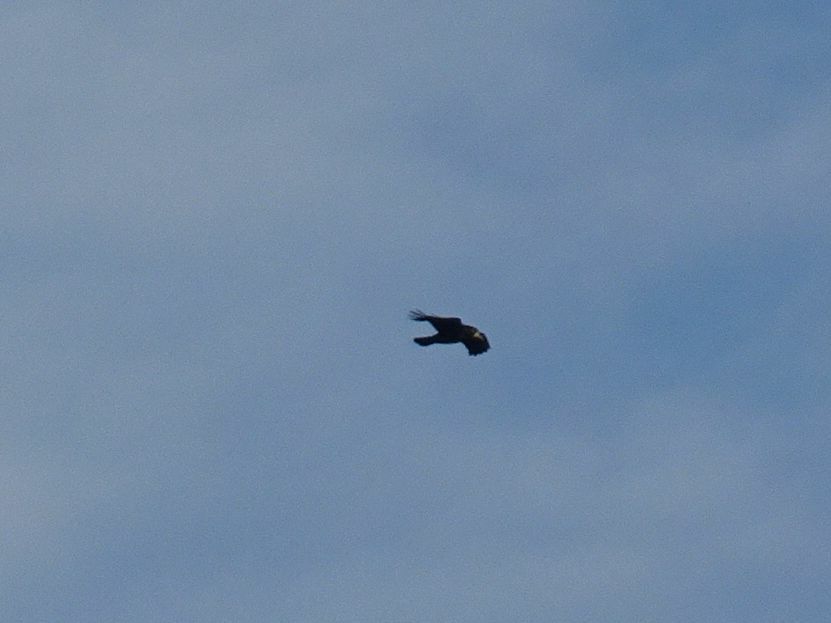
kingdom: Animalia
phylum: Chordata
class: Aves
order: Passeriformes
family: Corvidae
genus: Corvus
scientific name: Corvus frugilegus
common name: Rook
